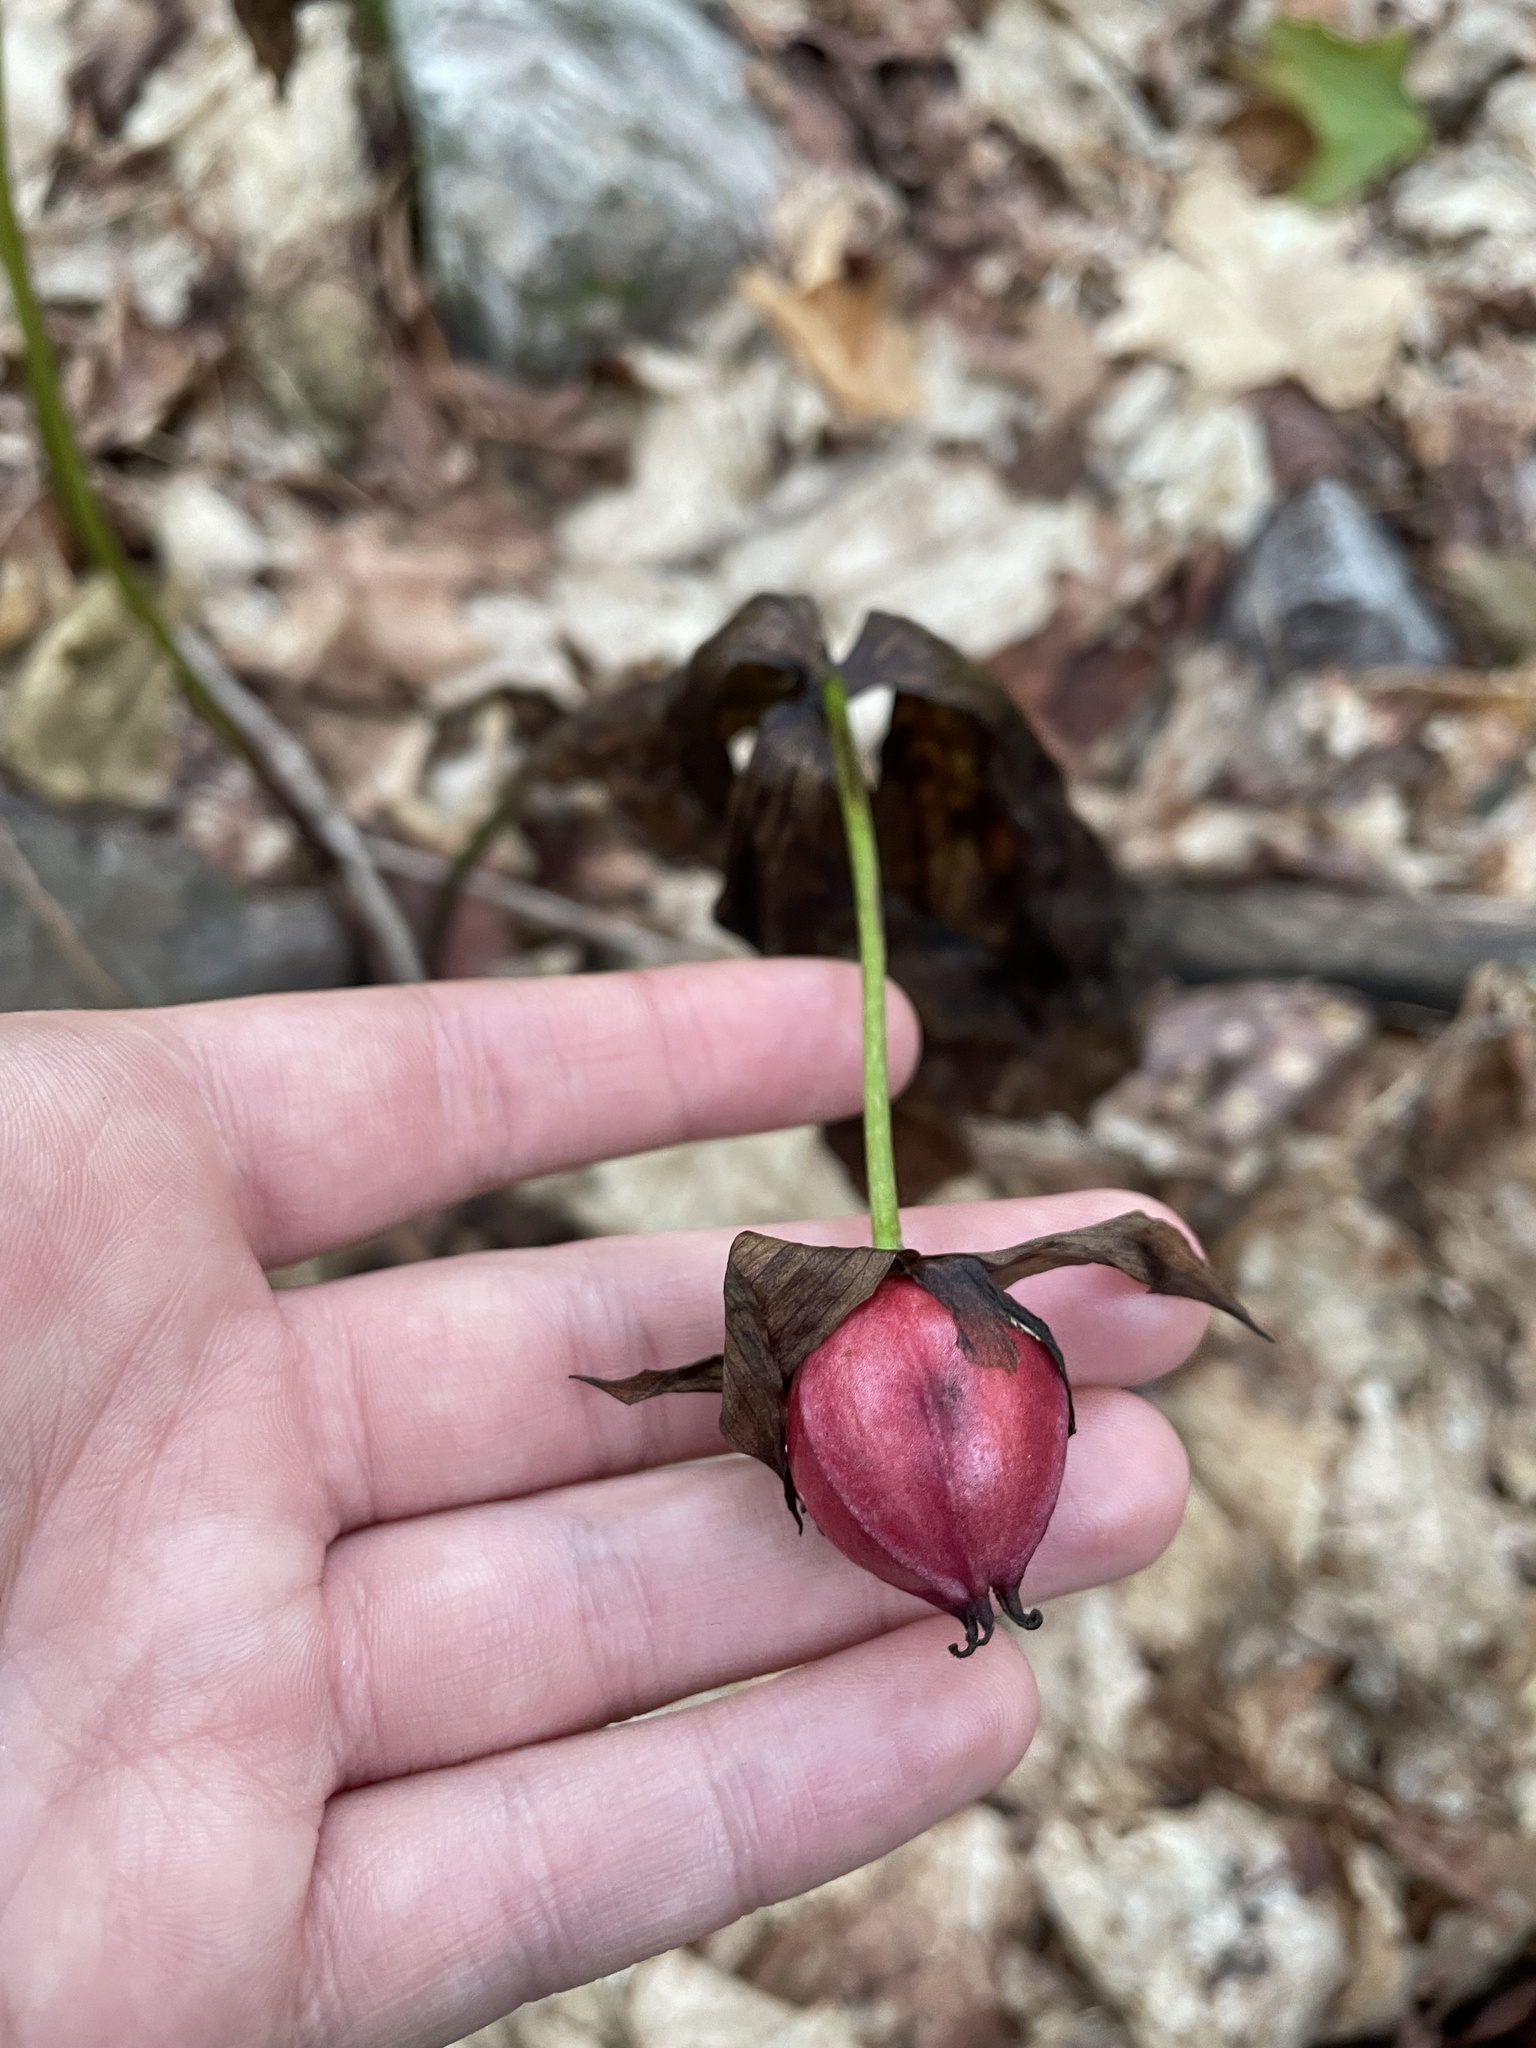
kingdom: Plantae
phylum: Tracheophyta
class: Liliopsida
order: Liliales
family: Melanthiaceae
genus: Trillium
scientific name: Trillium erectum
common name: Purple trillium
